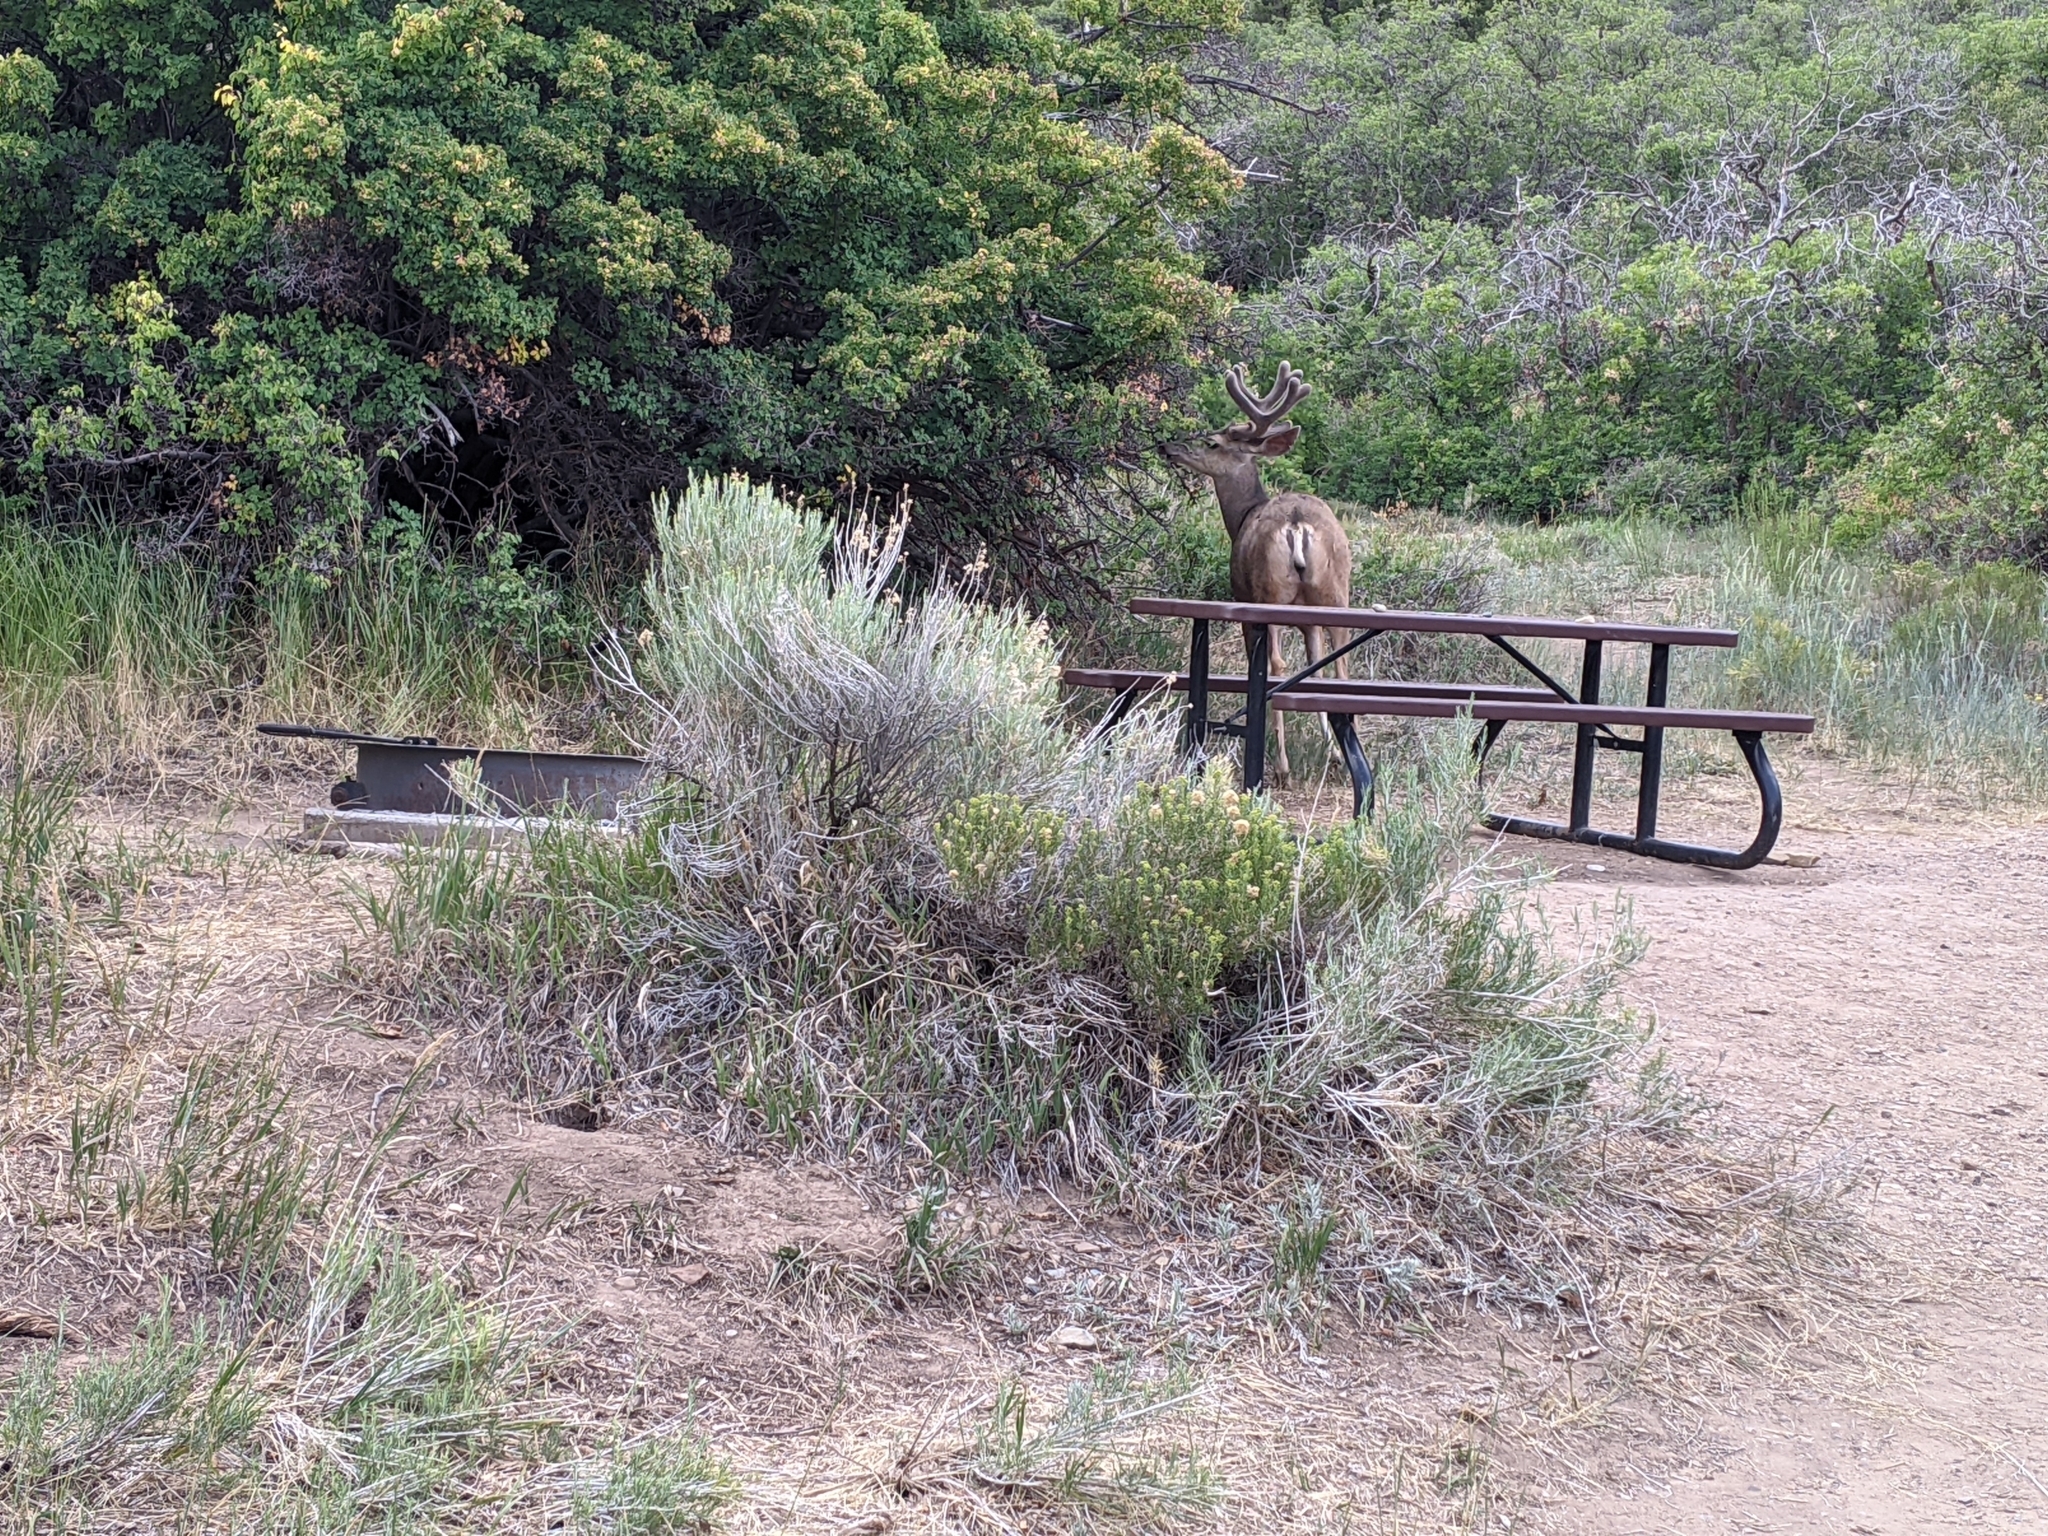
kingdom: Animalia
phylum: Chordata
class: Mammalia
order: Artiodactyla
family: Cervidae
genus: Odocoileus
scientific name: Odocoileus hemionus
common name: Mule deer
